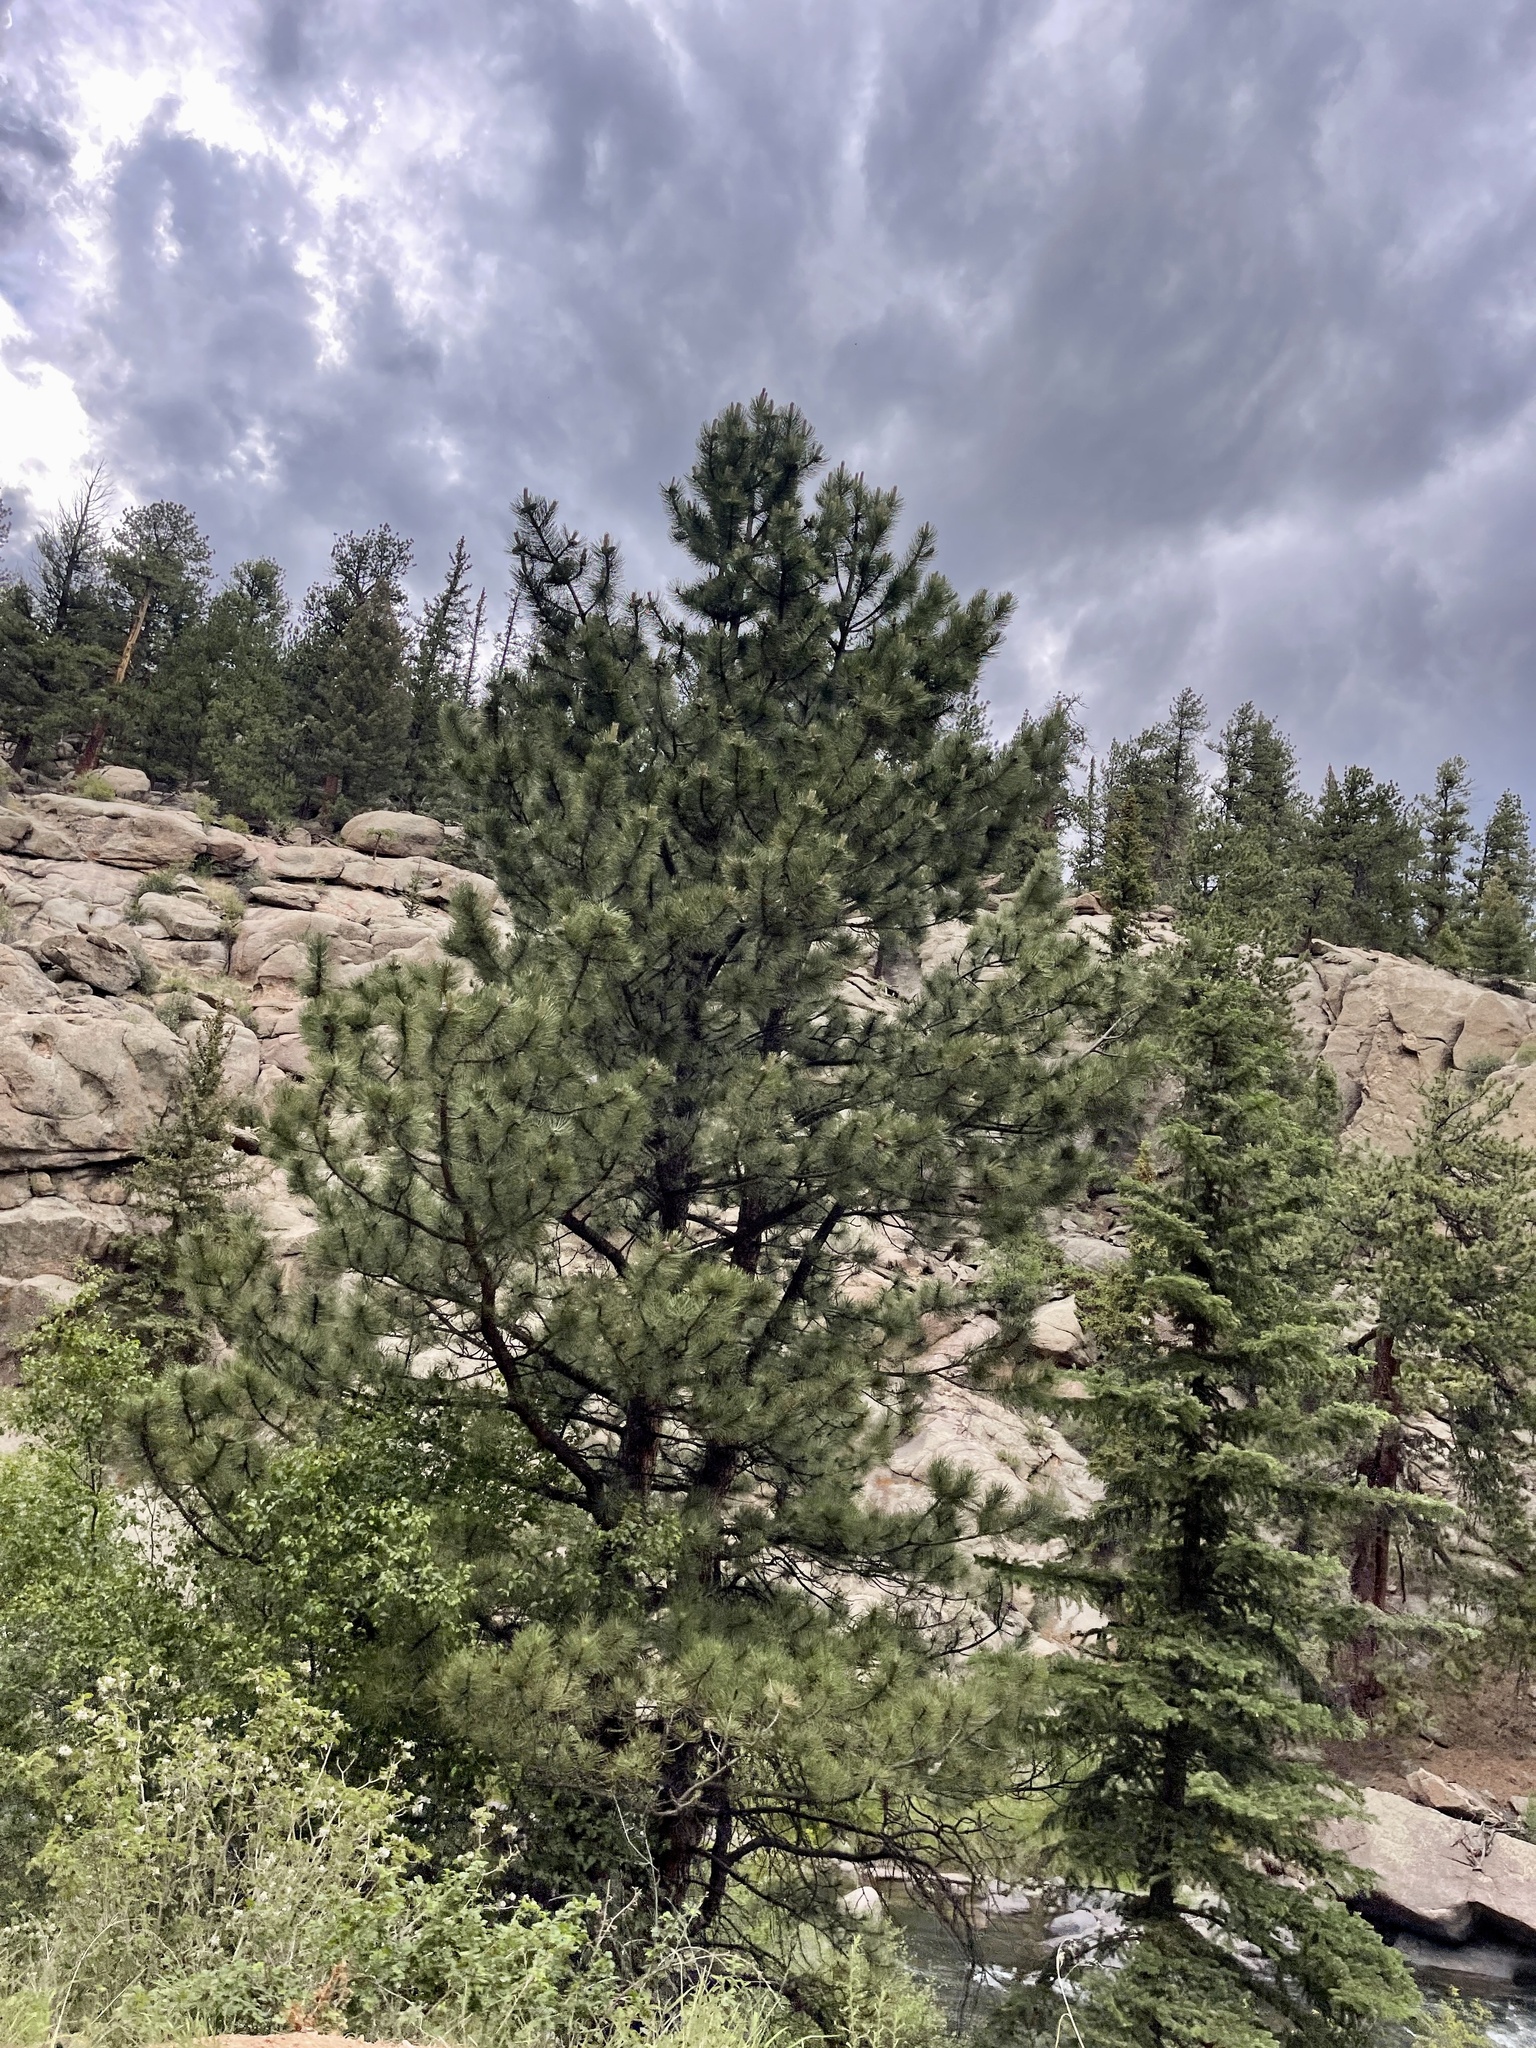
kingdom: Plantae
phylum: Tracheophyta
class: Pinopsida
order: Pinales
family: Pinaceae
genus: Pinus
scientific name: Pinus ponderosa
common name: Western yellow-pine
